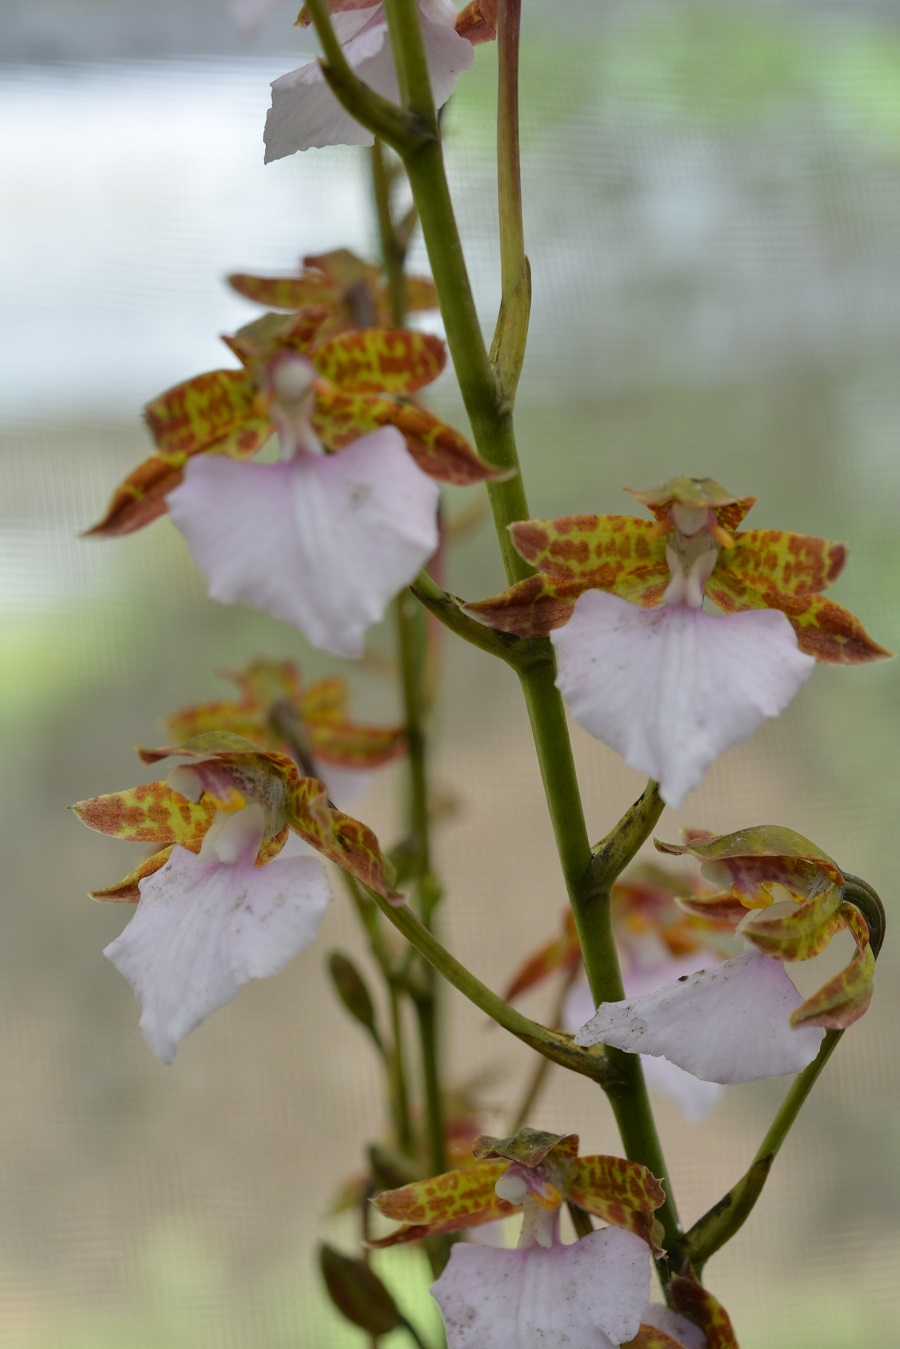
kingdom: Plantae
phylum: Tracheophyta
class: Liliopsida
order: Asparagales
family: Orchidaceae
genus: Rhynchostele
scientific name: Rhynchostele bictoniensis
